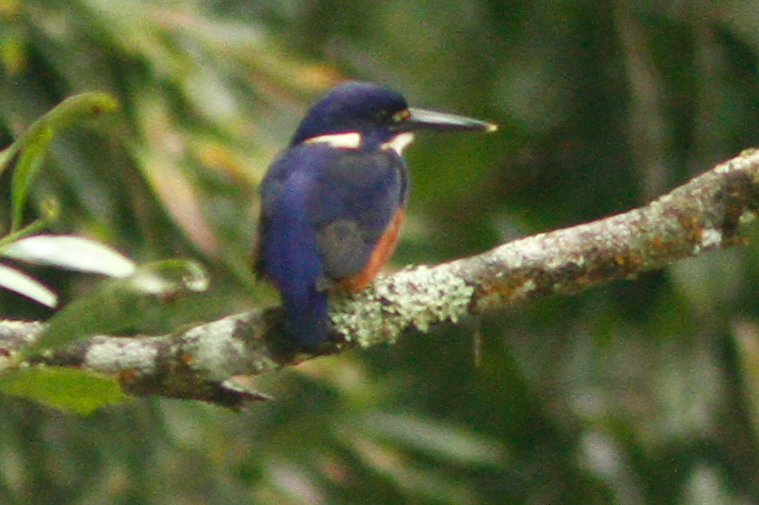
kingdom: Animalia
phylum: Chordata
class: Aves
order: Coraciiformes
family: Alcedinidae
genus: Ceyx
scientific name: Ceyx azureus
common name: Azure kingfisher
